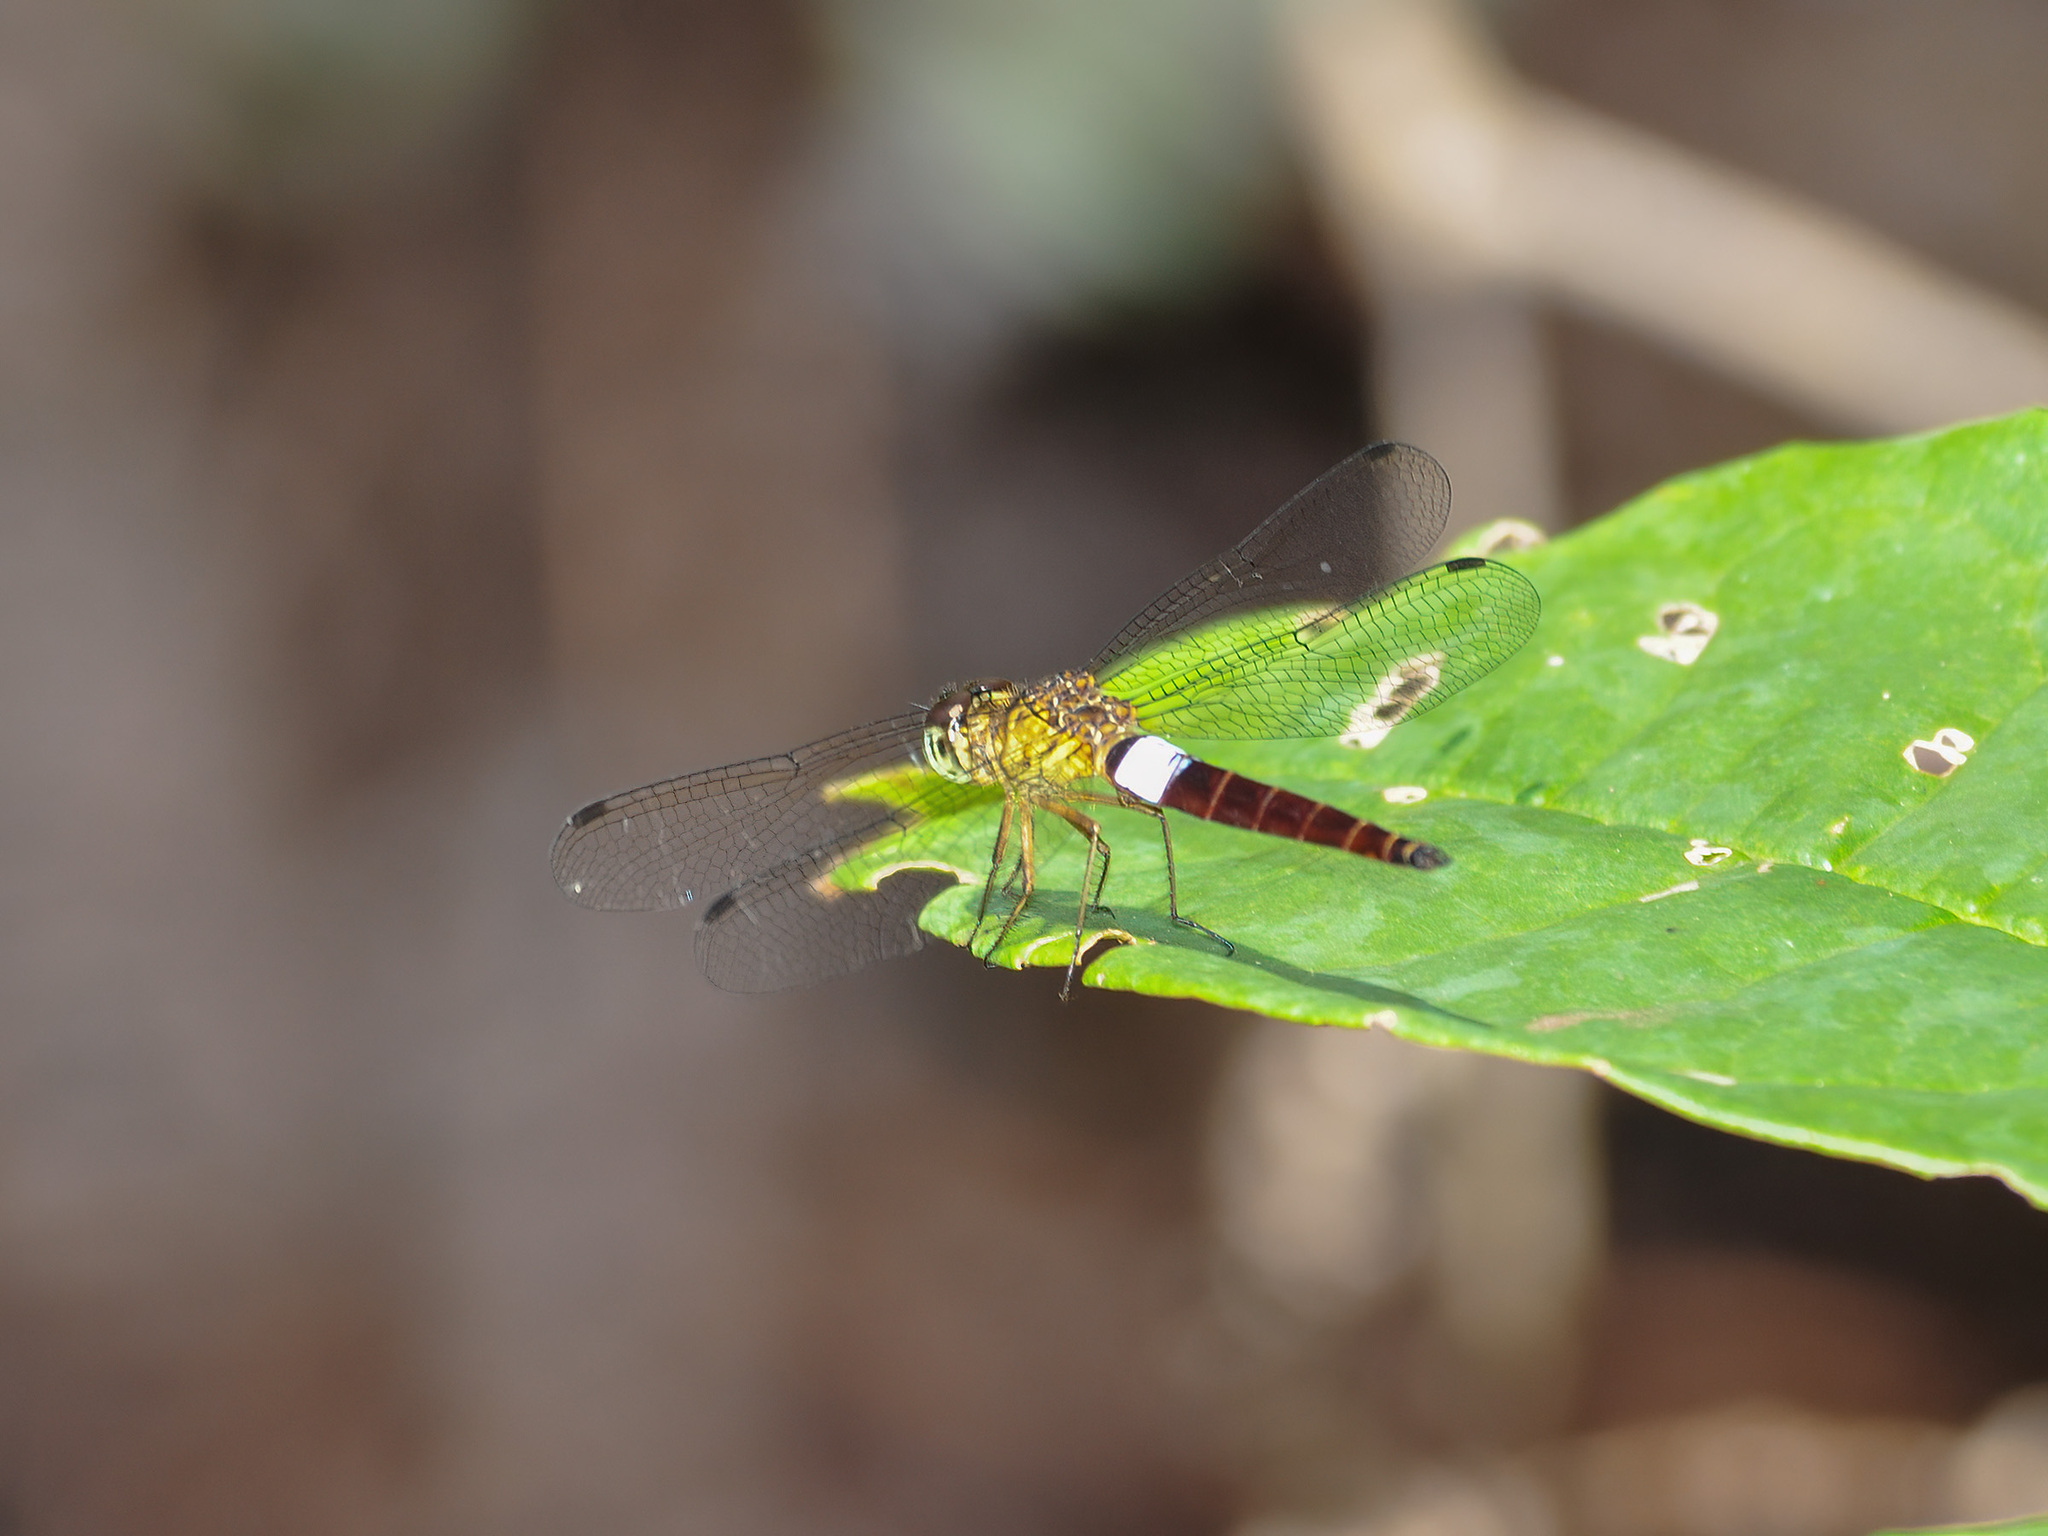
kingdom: Animalia
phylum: Arthropoda
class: Insecta
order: Odonata
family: Libellulidae
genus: Orchithemis
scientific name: Orchithemis pulcherrima
